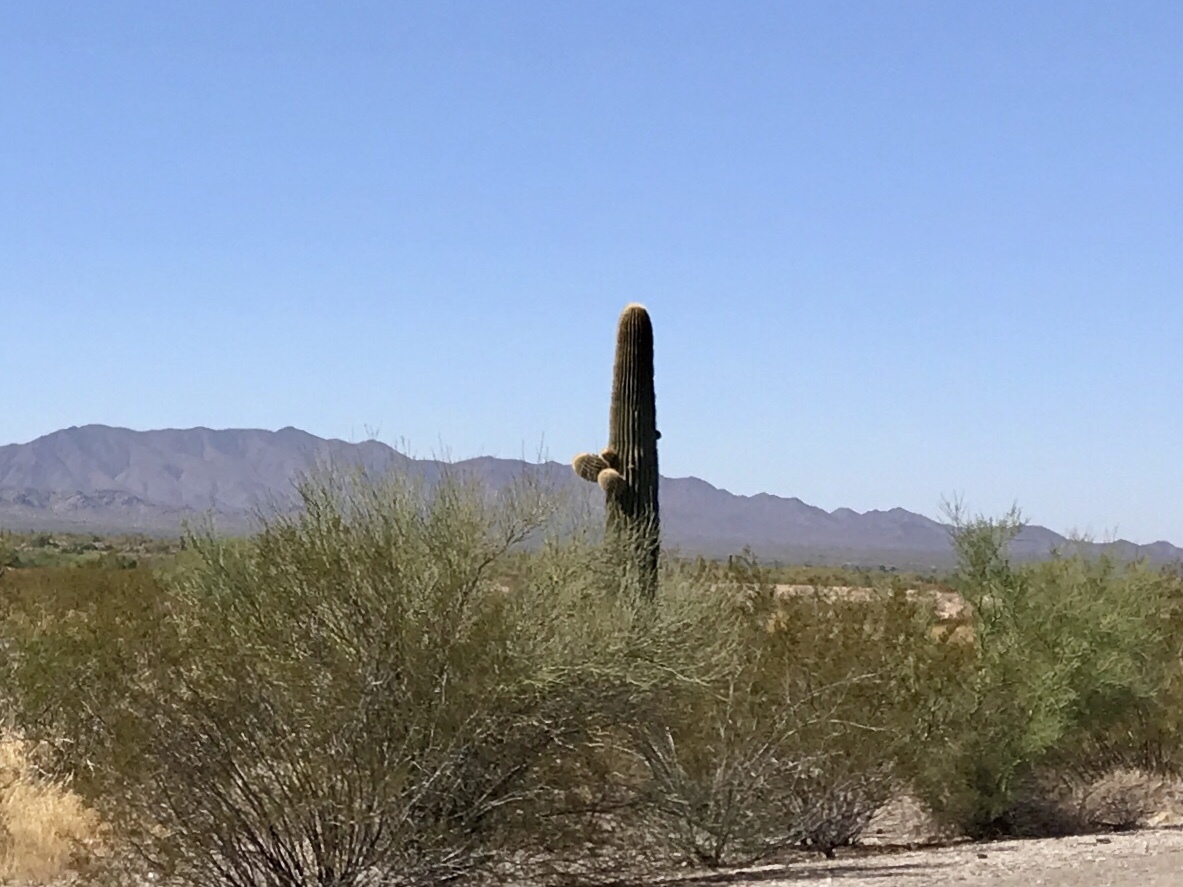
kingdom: Plantae
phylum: Tracheophyta
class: Magnoliopsida
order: Caryophyllales
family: Cactaceae
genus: Carnegiea
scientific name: Carnegiea gigantea
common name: Saguaro
